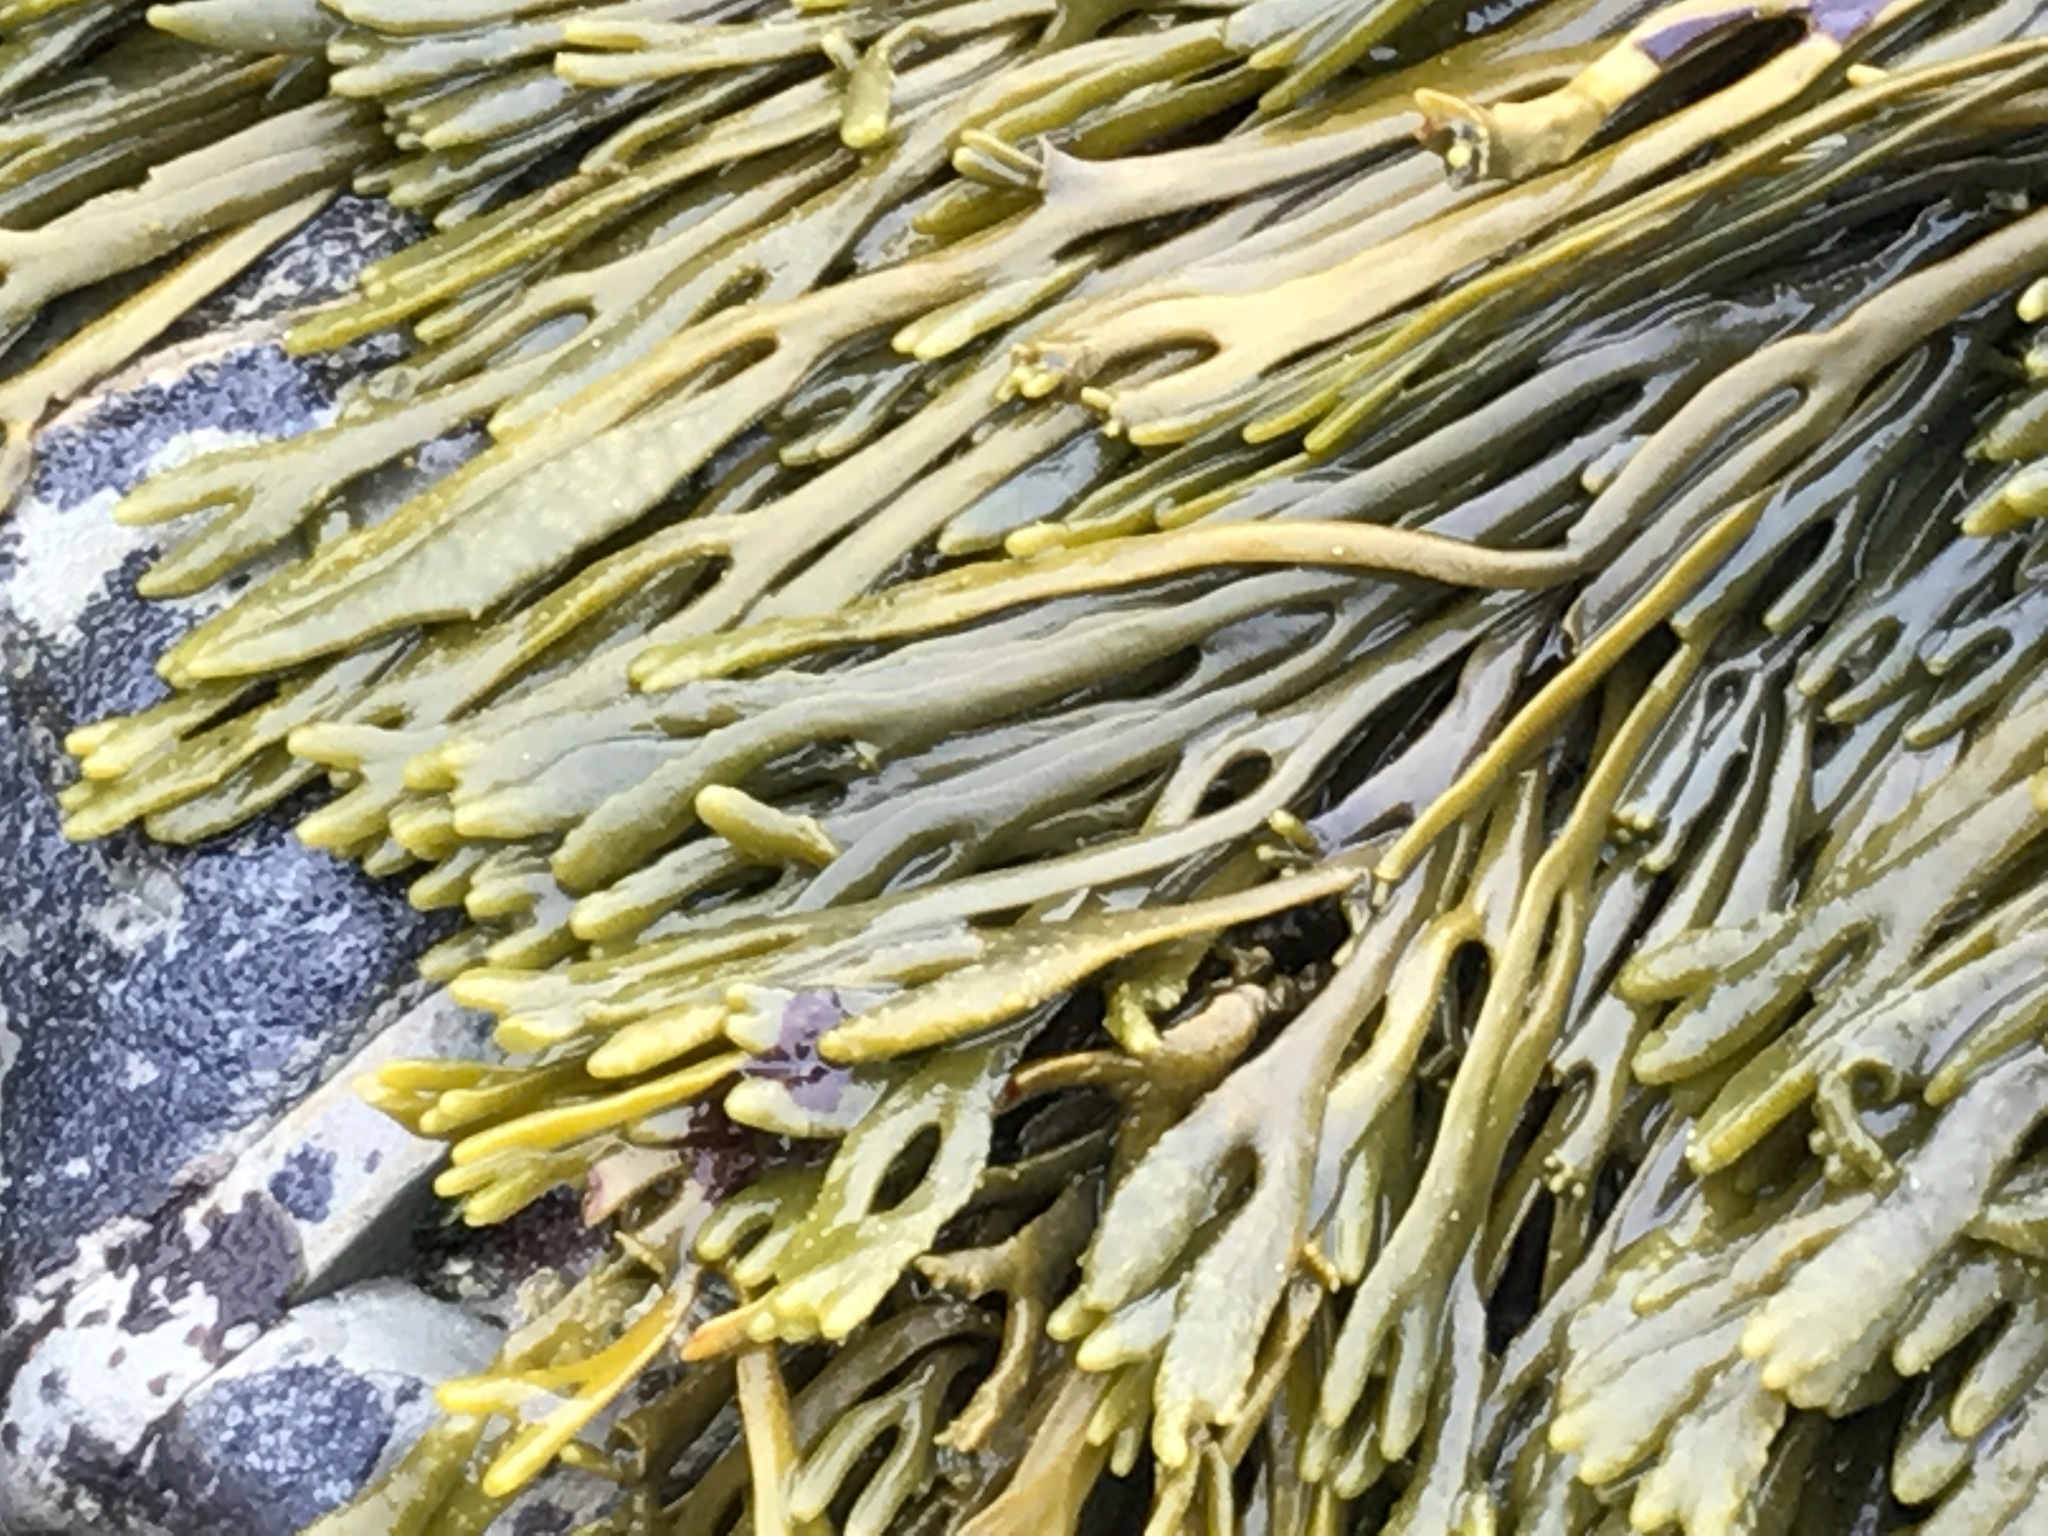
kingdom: Chromista
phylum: Ochrophyta
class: Phaeophyceae
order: Fucales
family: Fucaceae
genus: Silvetia
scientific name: Silvetia
